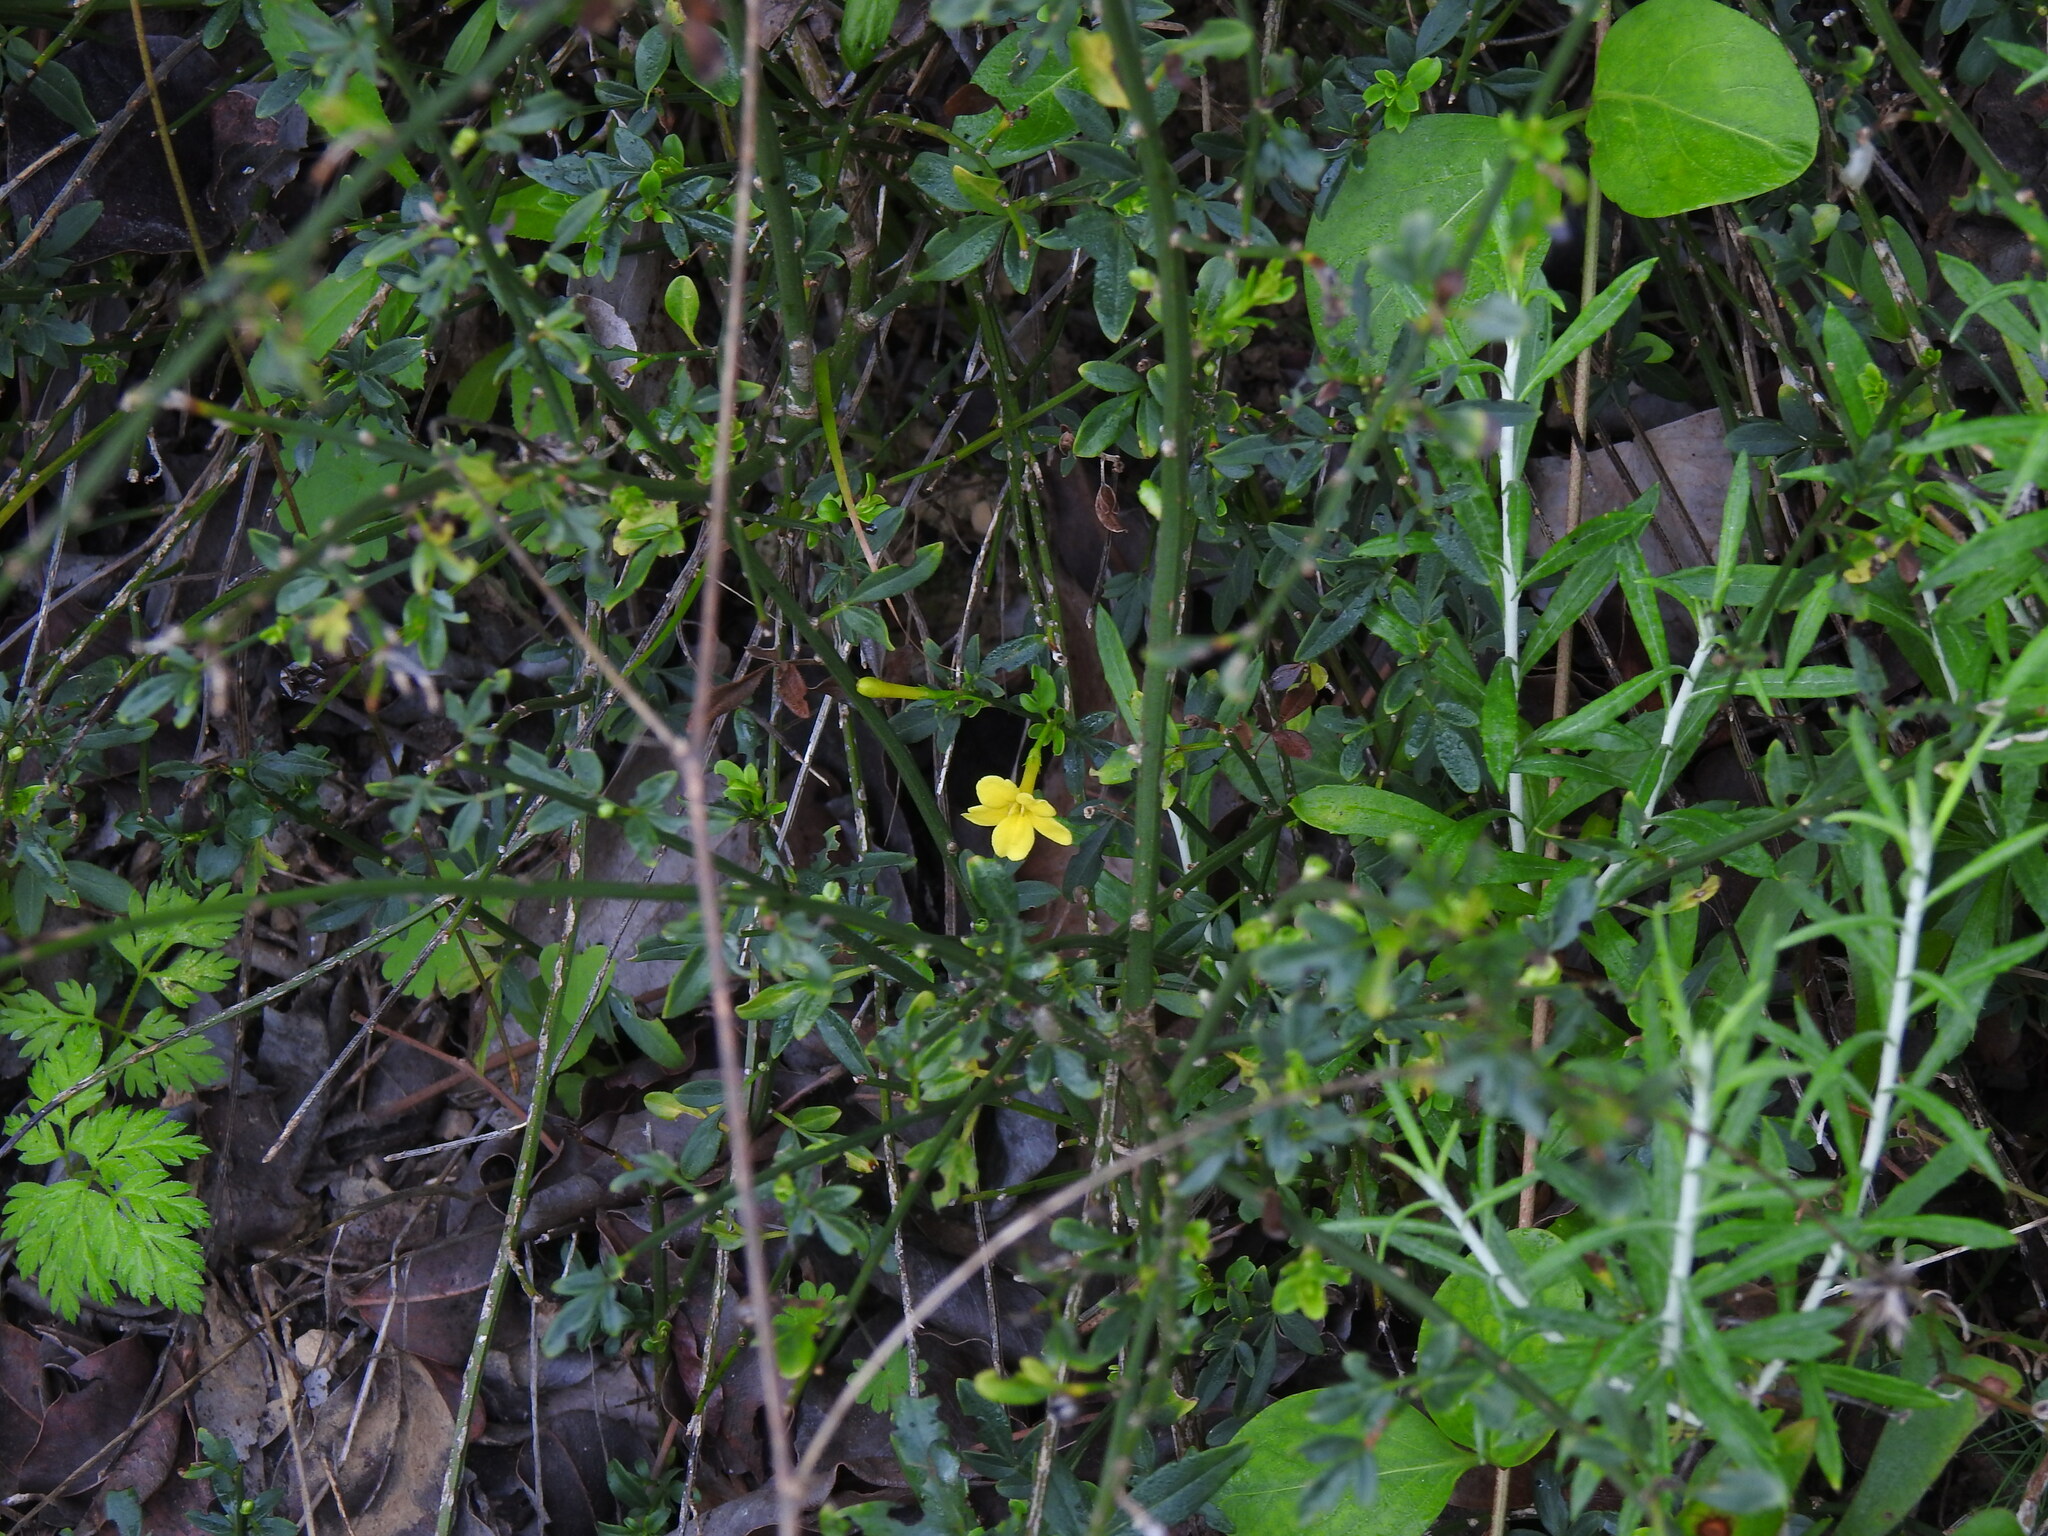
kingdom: Plantae
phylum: Tracheophyta
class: Magnoliopsida
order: Lamiales
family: Oleaceae
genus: Chrysojasminum
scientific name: Chrysojasminum fruticans
